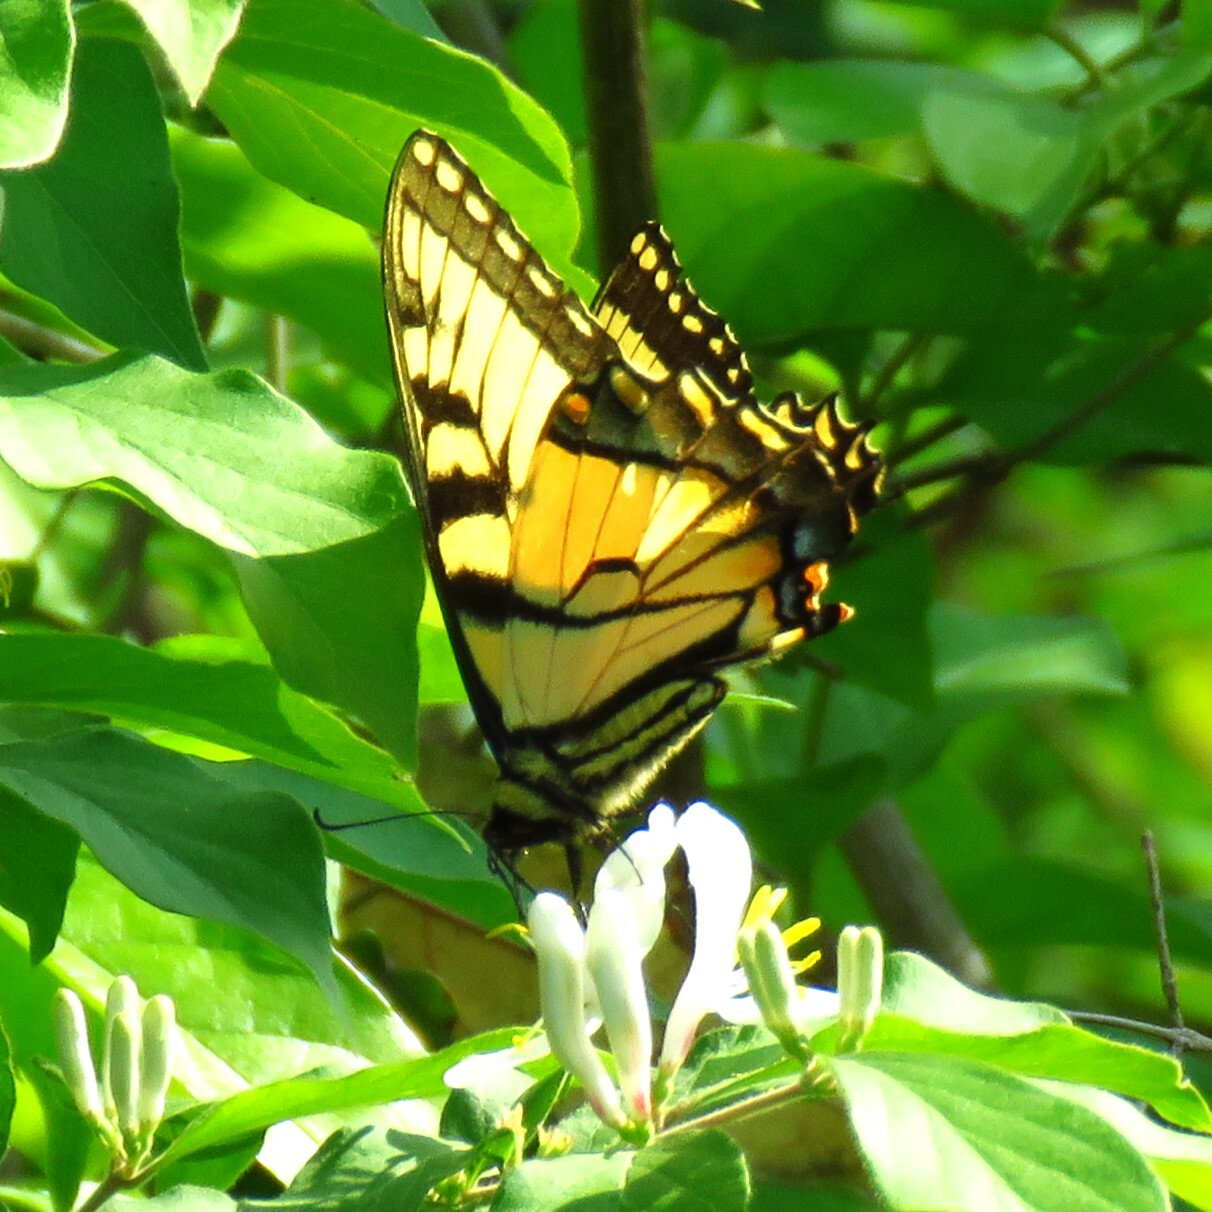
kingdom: Animalia
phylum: Arthropoda
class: Insecta
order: Lepidoptera
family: Papilionidae
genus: Papilio
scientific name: Papilio glaucus
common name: Tiger swallowtail
